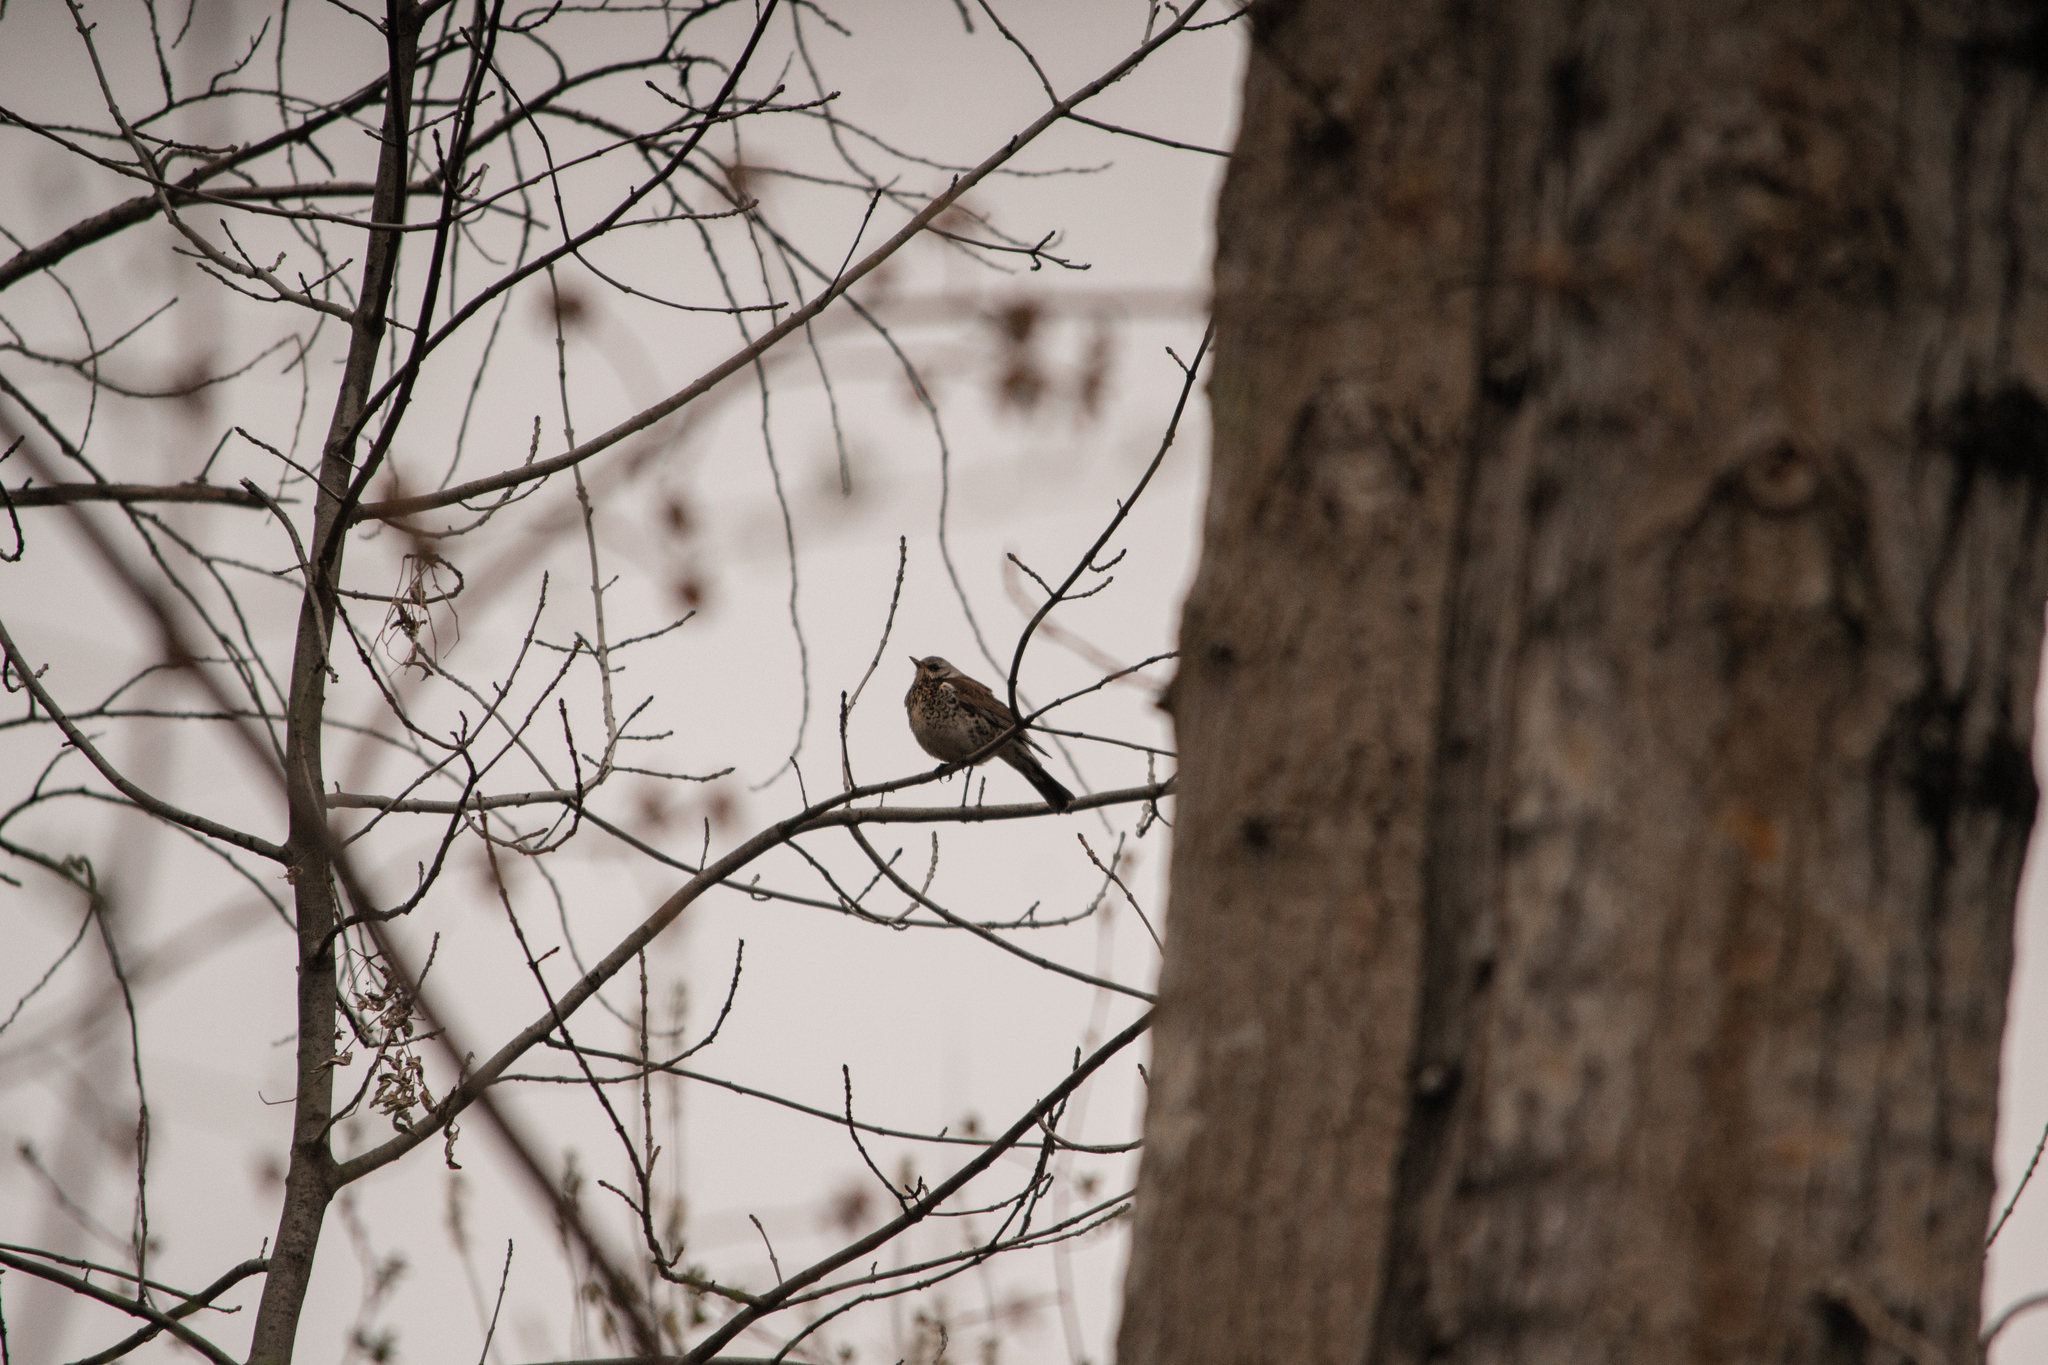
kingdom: Animalia
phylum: Chordata
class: Aves
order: Passeriformes
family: Turdidae
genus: Turdus
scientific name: Turdus pilaris
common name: Fieldfare
